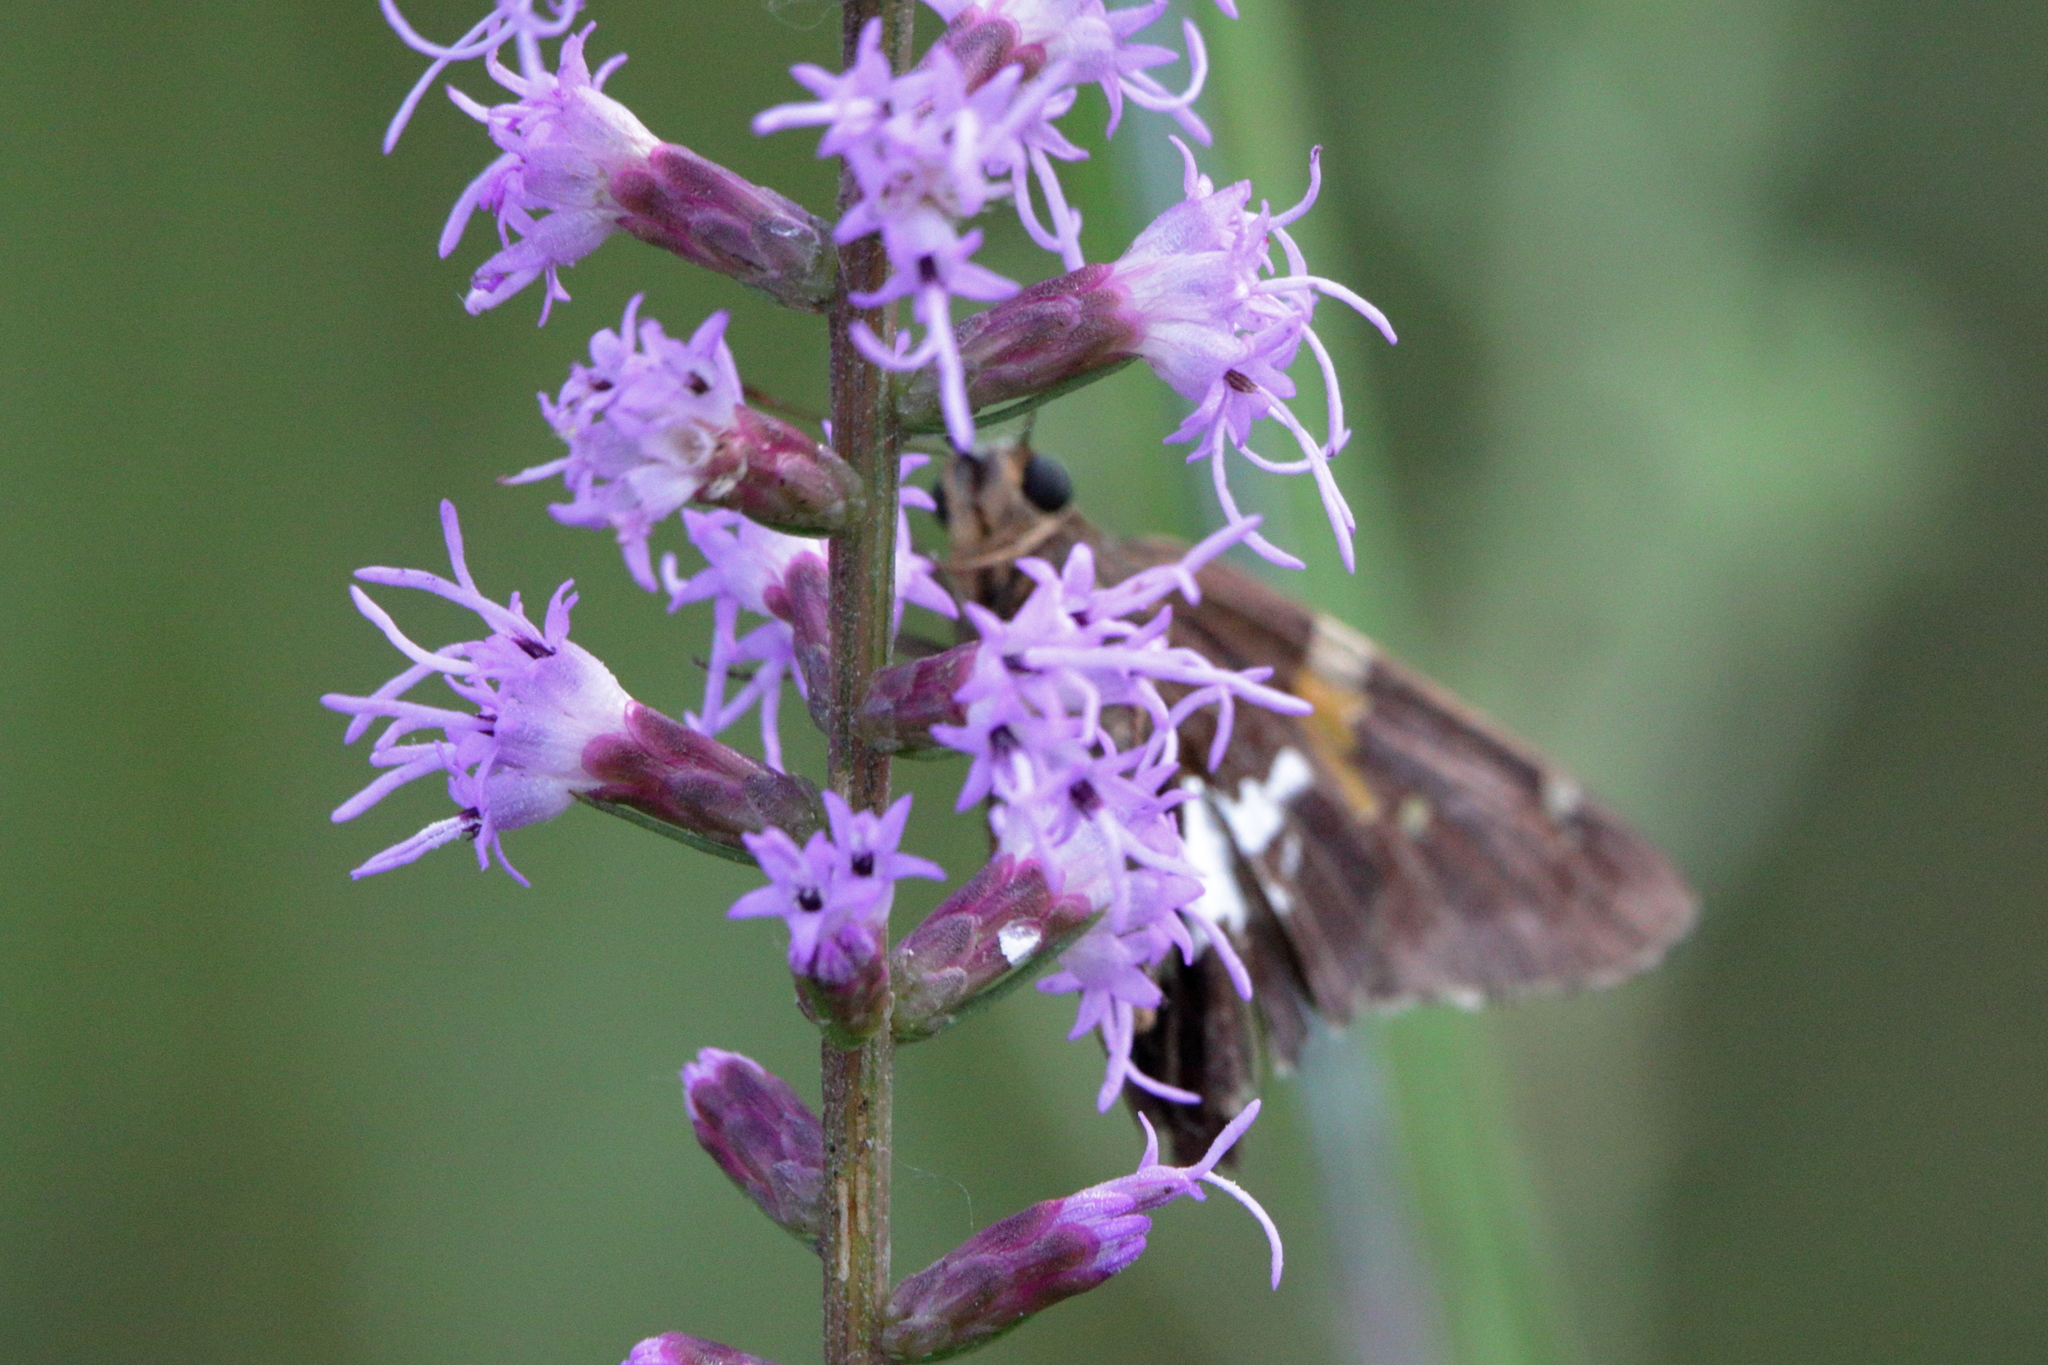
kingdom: Animalia
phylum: Arthropoda
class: Insecta
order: Lepidoptera
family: Hesperiidae
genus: Epargyreus
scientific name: Epargyreus clarus
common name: Silver-spotted skipper
